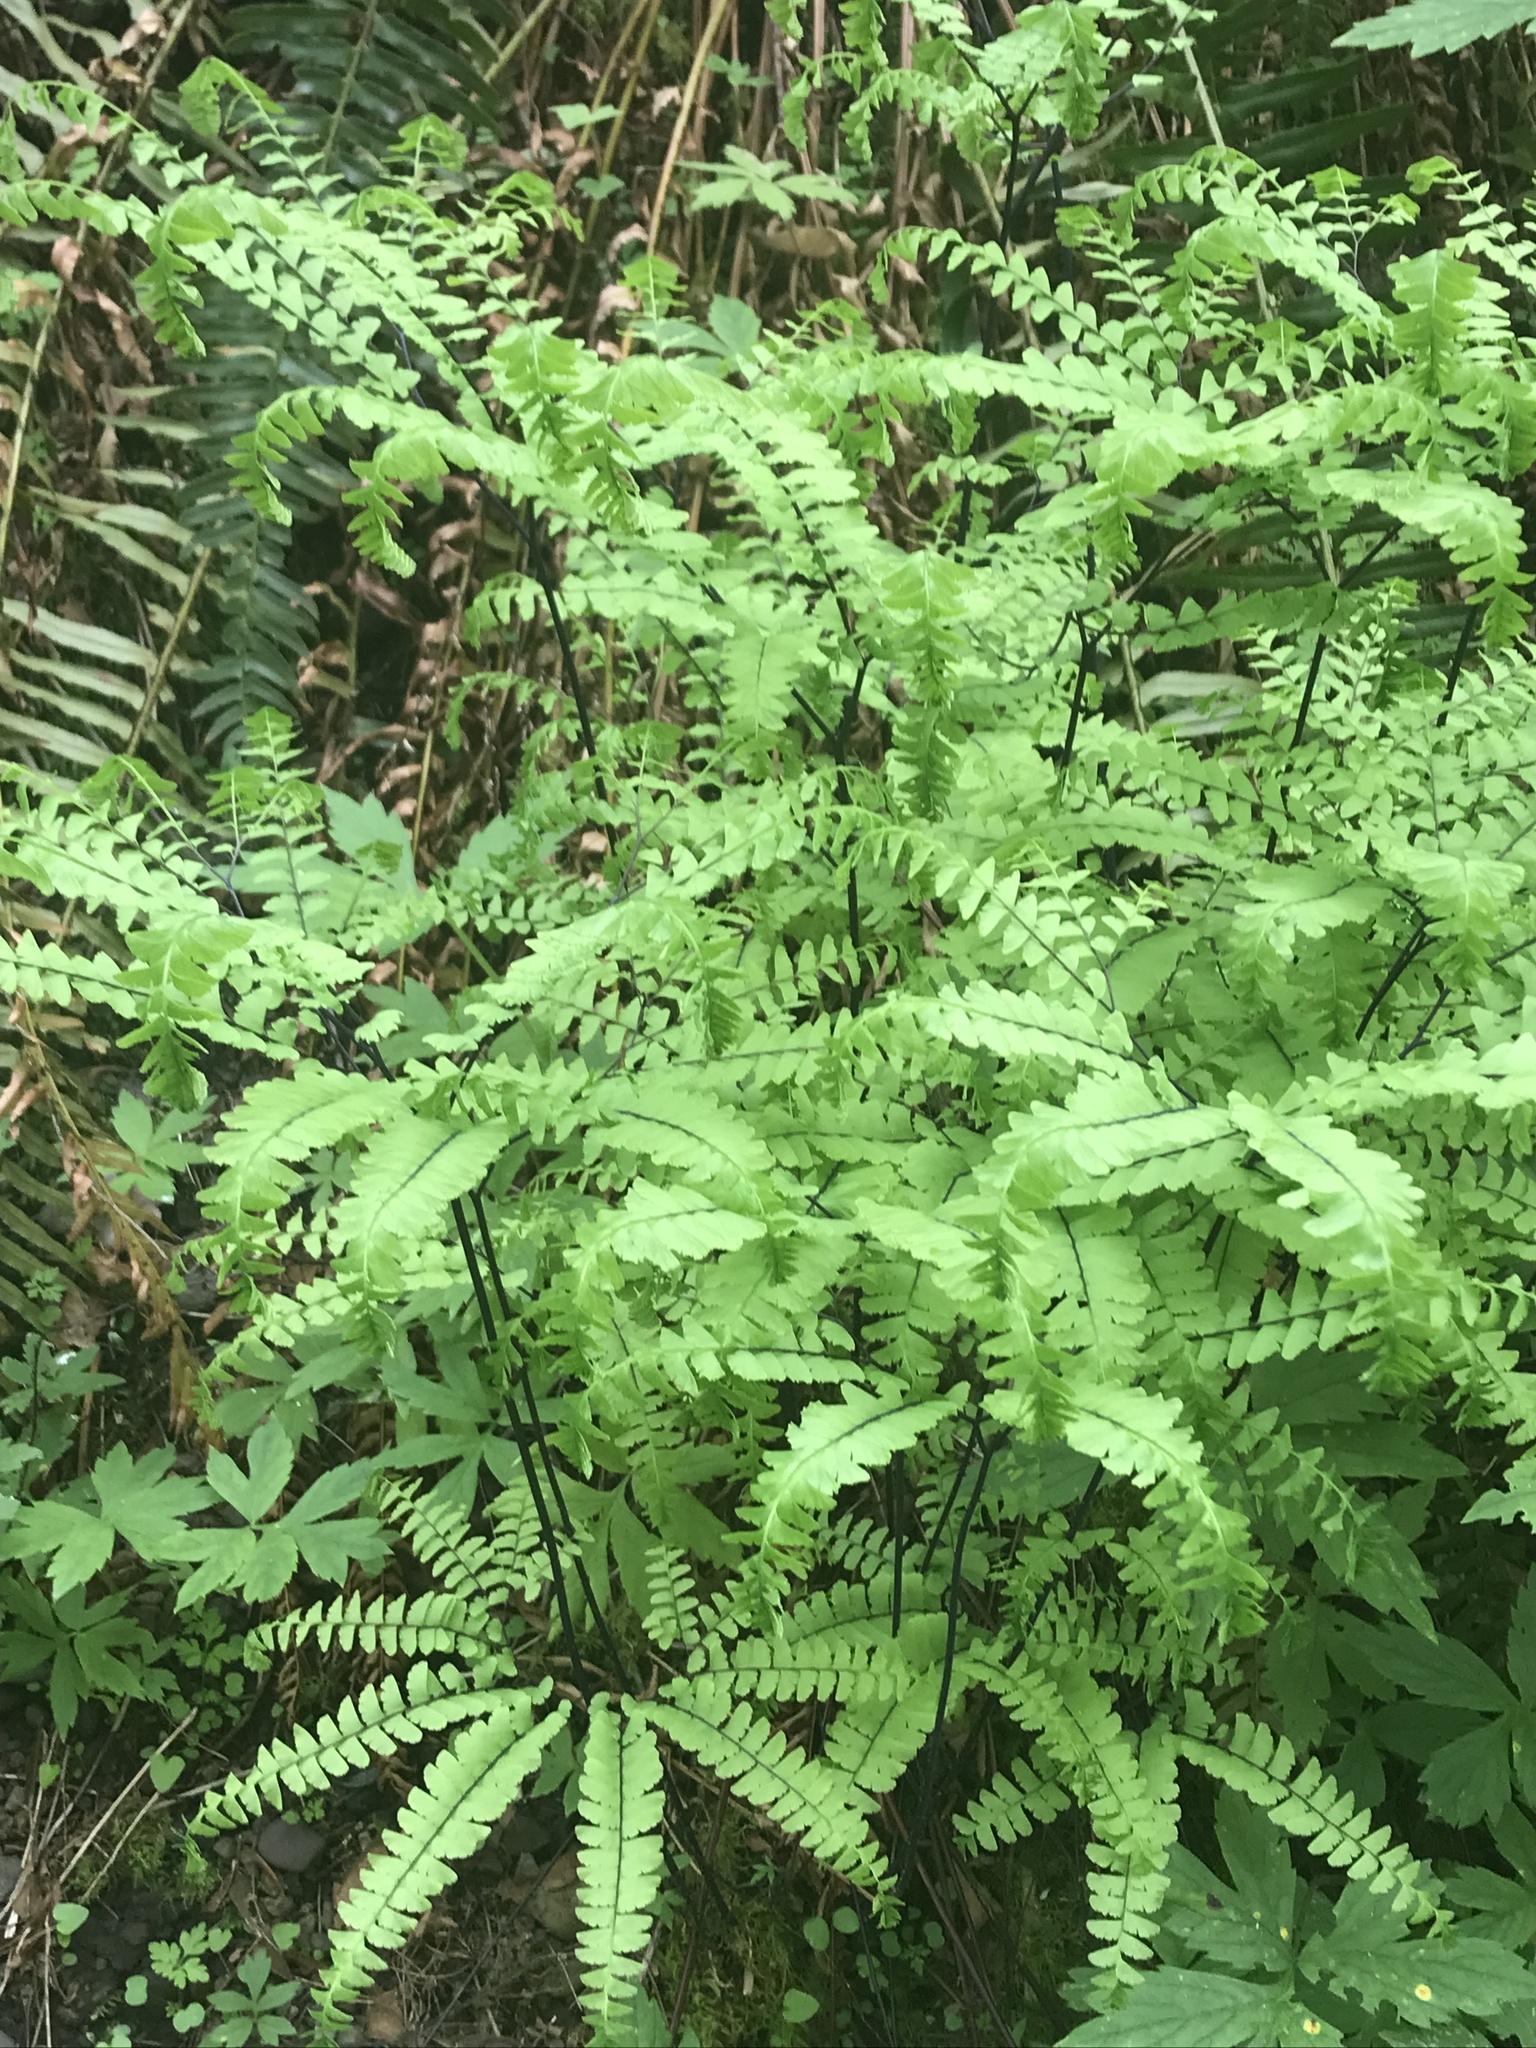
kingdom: Plantae
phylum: Tracheophyta
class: Polypodiopsida
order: Polypodiales
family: Pteridaceae
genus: Adiantum
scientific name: Adiantum aleuticum
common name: Aleutian maidenhair fern
